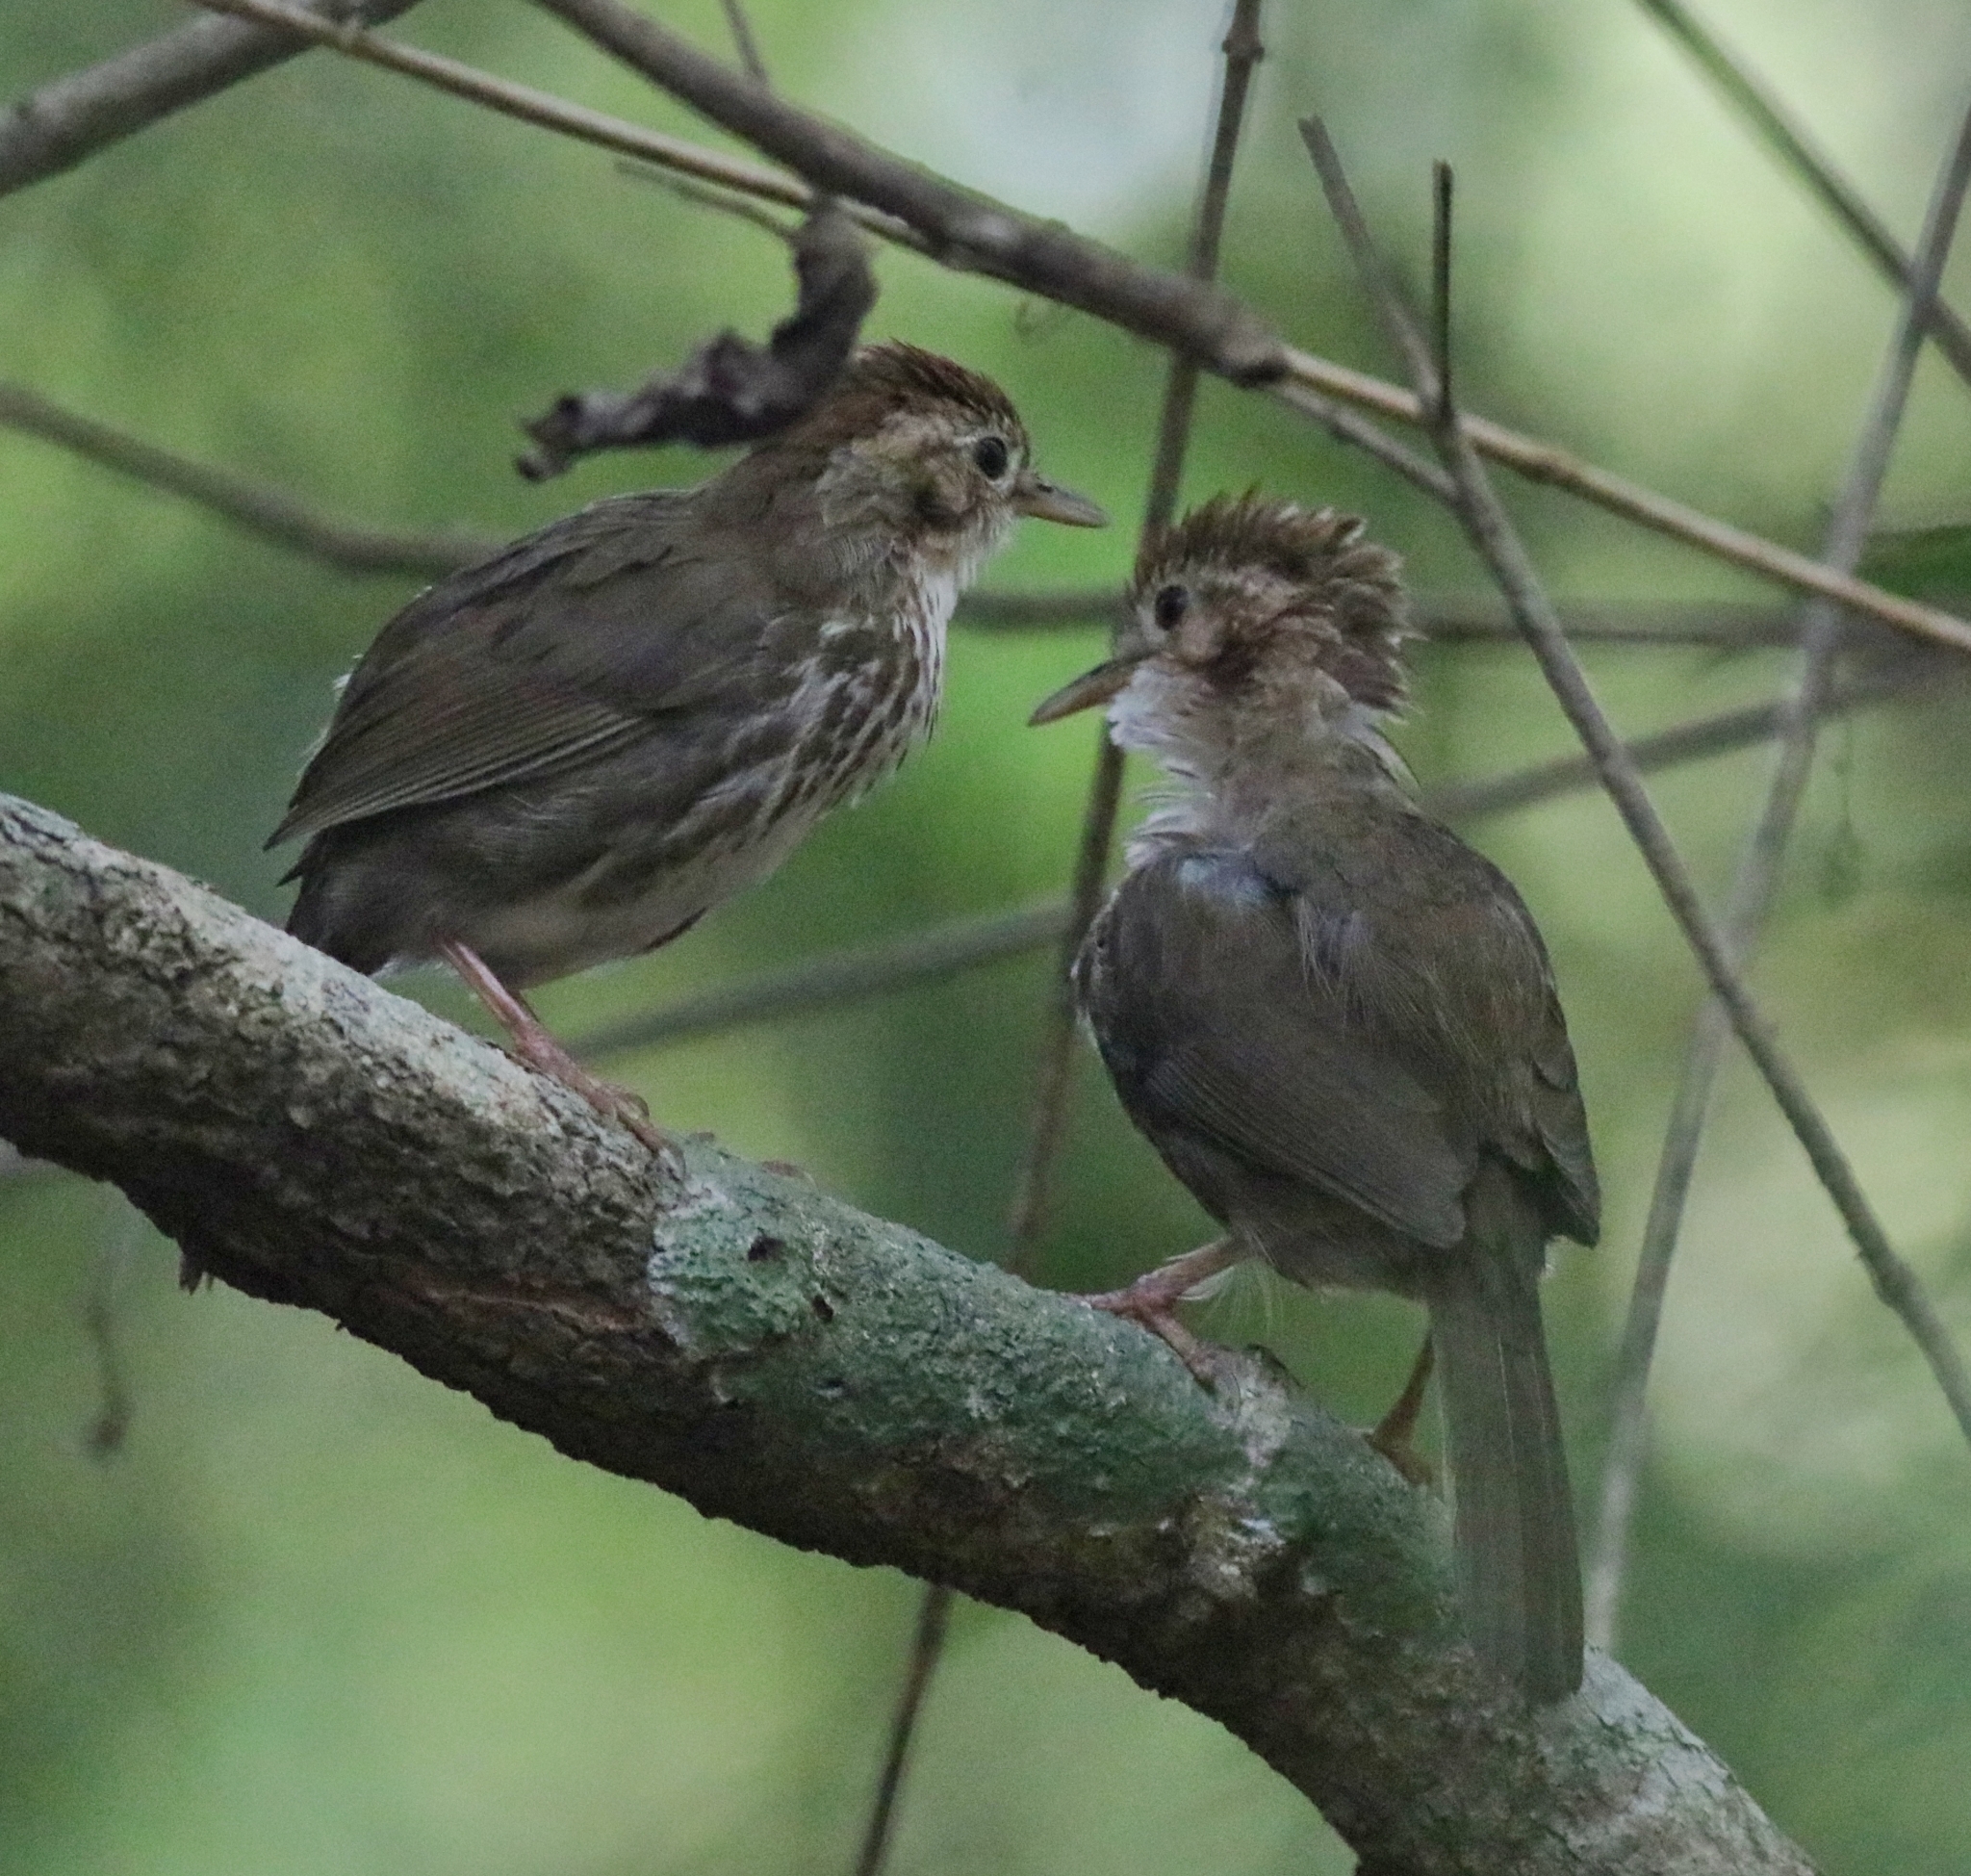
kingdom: Animalia
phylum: Chordata
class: Aves
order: Passeriformes
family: Pellorneidae
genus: Pellorneum
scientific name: Pellorneum ruficeps
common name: Puff-throated babbler
